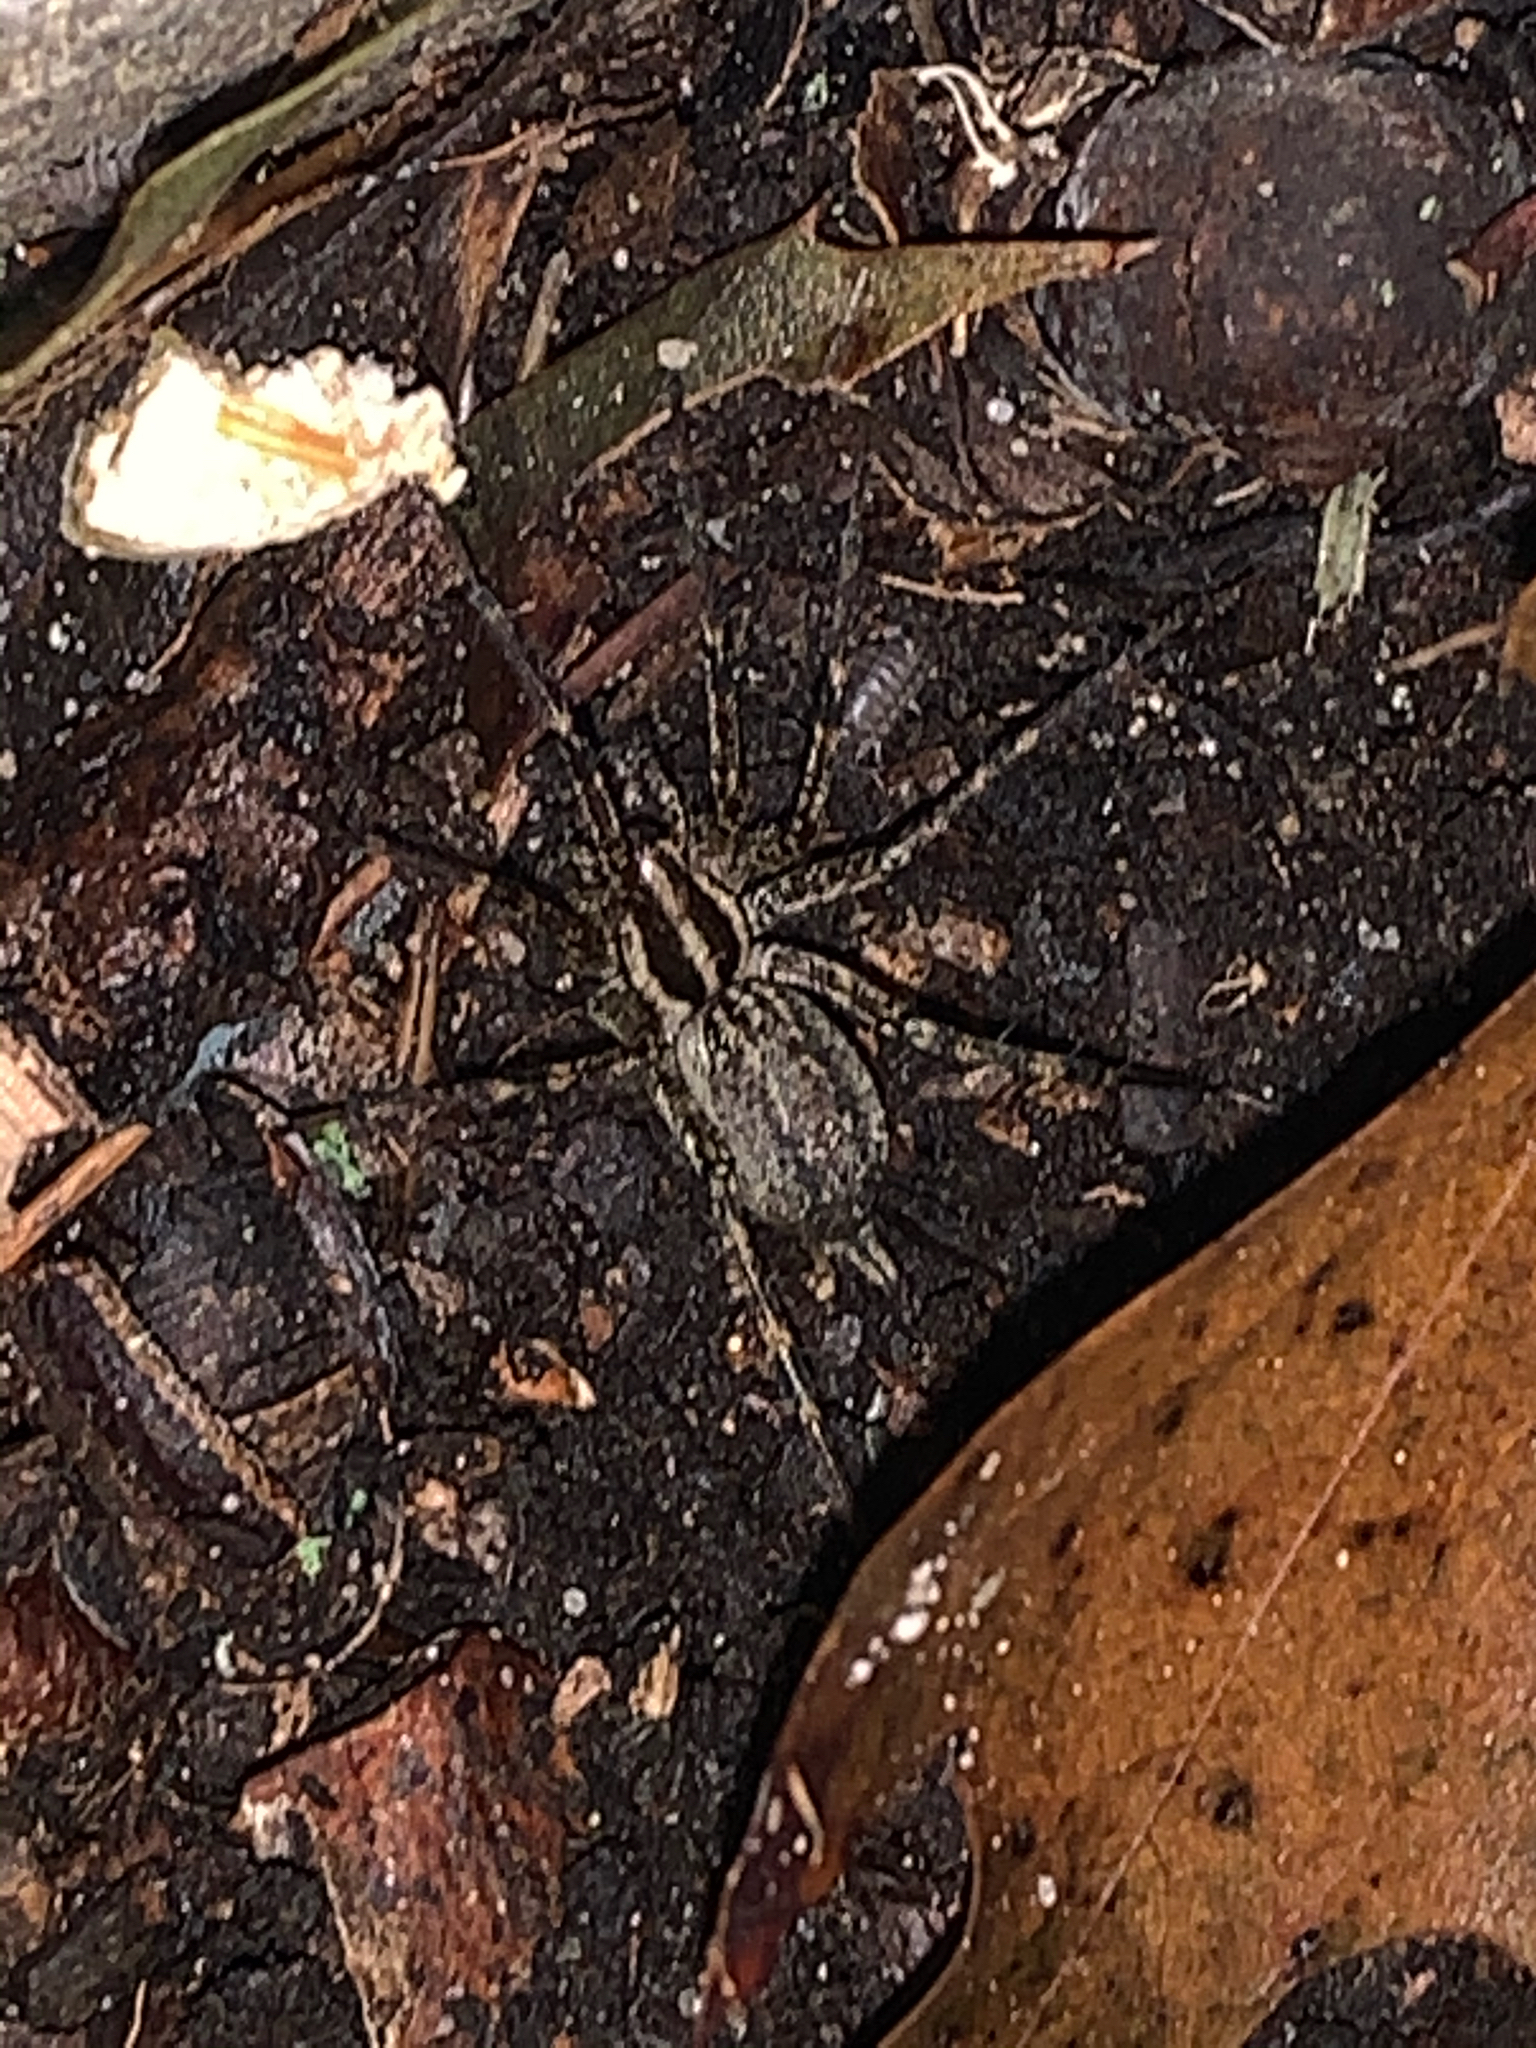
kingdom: Animalia
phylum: Arthropoda
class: Arachnida
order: Araneae
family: Agelenidae
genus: Agelenopsis
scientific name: Agelenopsis
